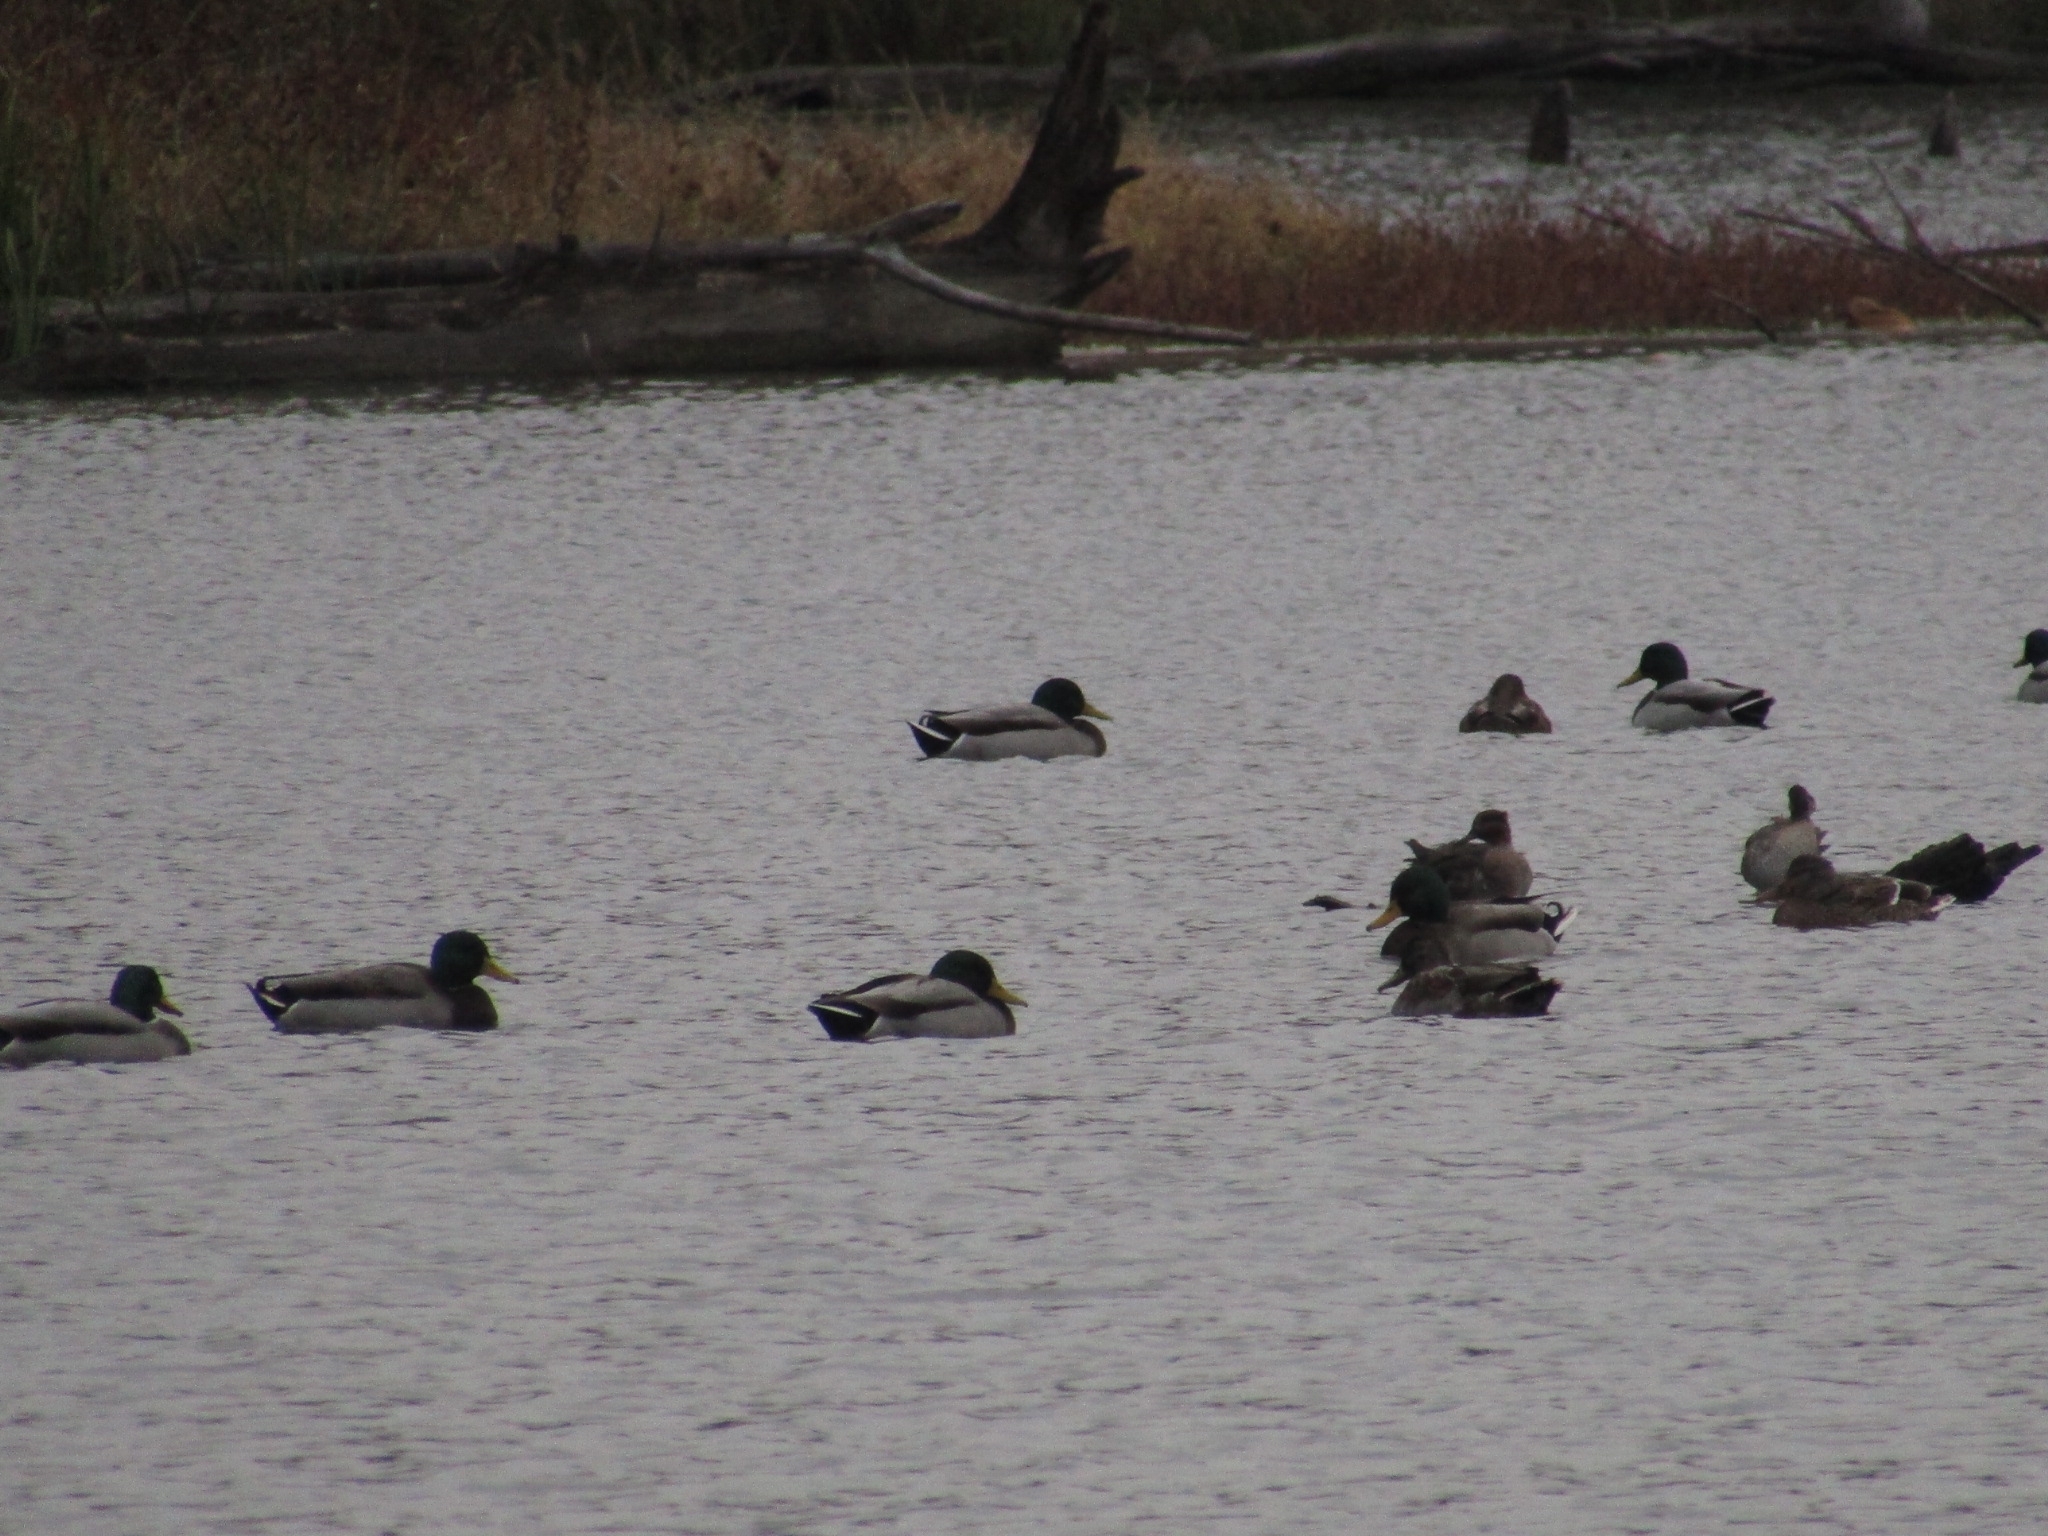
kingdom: Animalia
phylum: Chordata
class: Aves
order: Anseriformes
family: Anatidae
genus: Anas
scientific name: Anas platyrhynchos
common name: Mallard
